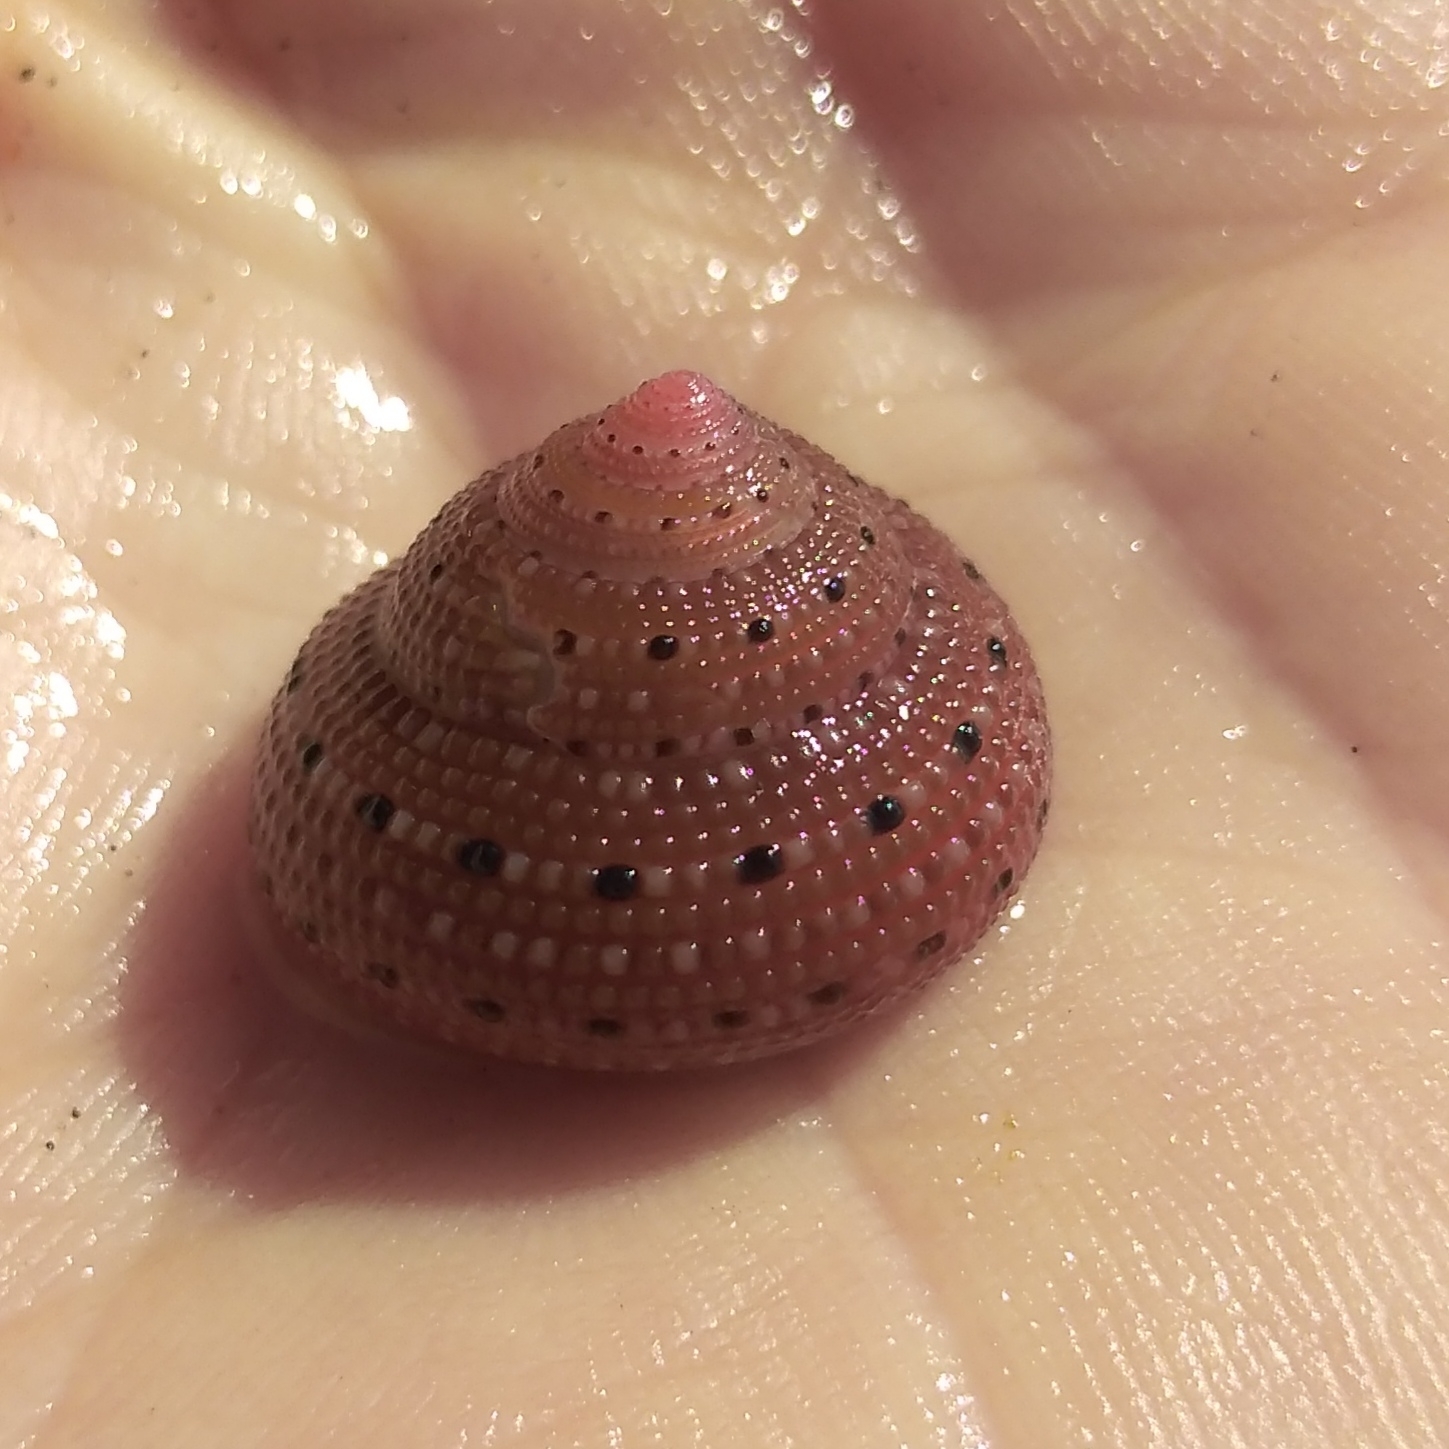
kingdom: Animalia
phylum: Mollusca
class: Gastropoda
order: Trochida
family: Trochidae
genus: Clanculus
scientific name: Clanculus puniceus
